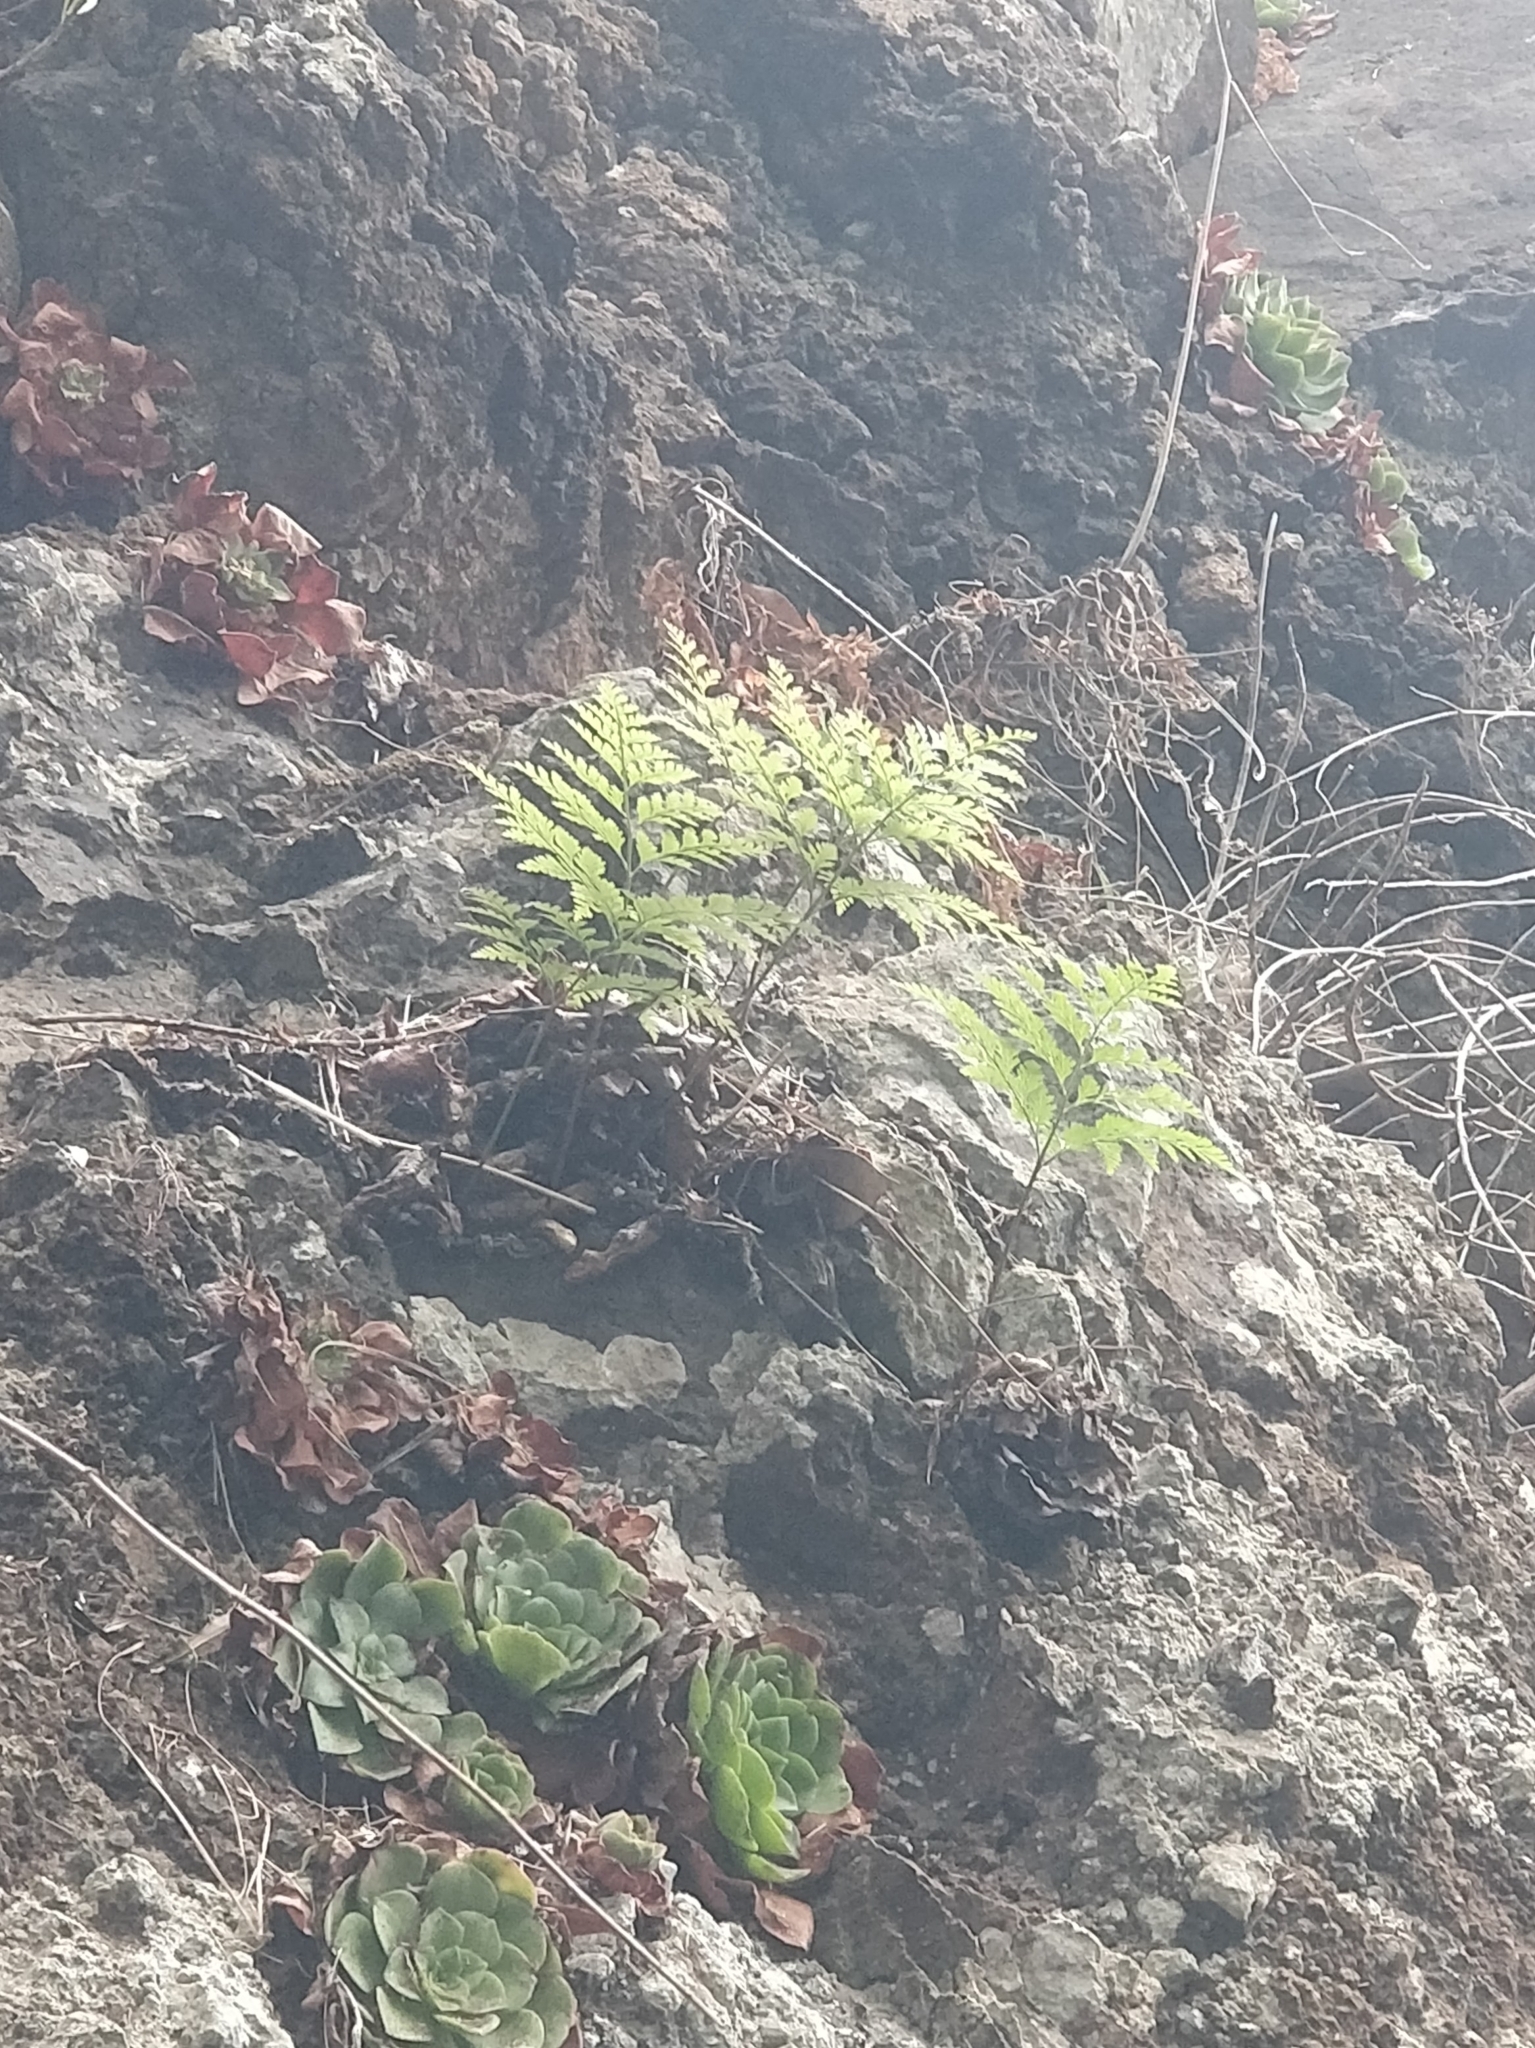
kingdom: Plantae
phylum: Tracheophyta
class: Polypodiopsida
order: Polypodiales
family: Davalliaceae
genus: Davallia
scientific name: Davallia canariensis
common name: Hare's-foot fern
